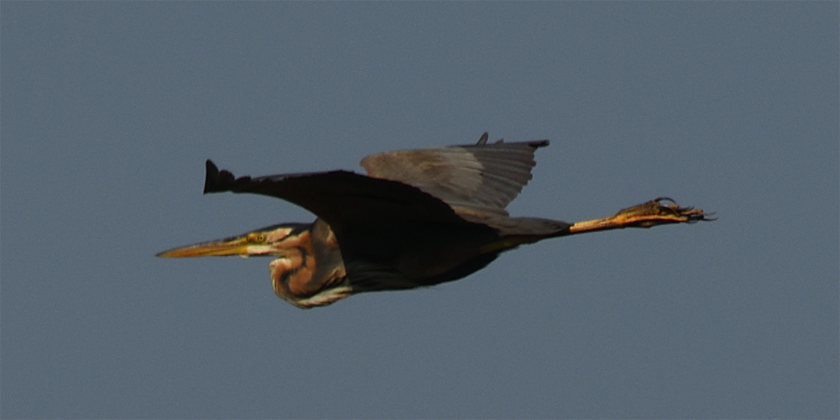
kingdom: Animalia
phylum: Chordata
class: Aves
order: Pelecaniformes
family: Ardeidae
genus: Ardea
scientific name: Ardea purpurea
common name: Purple heron
